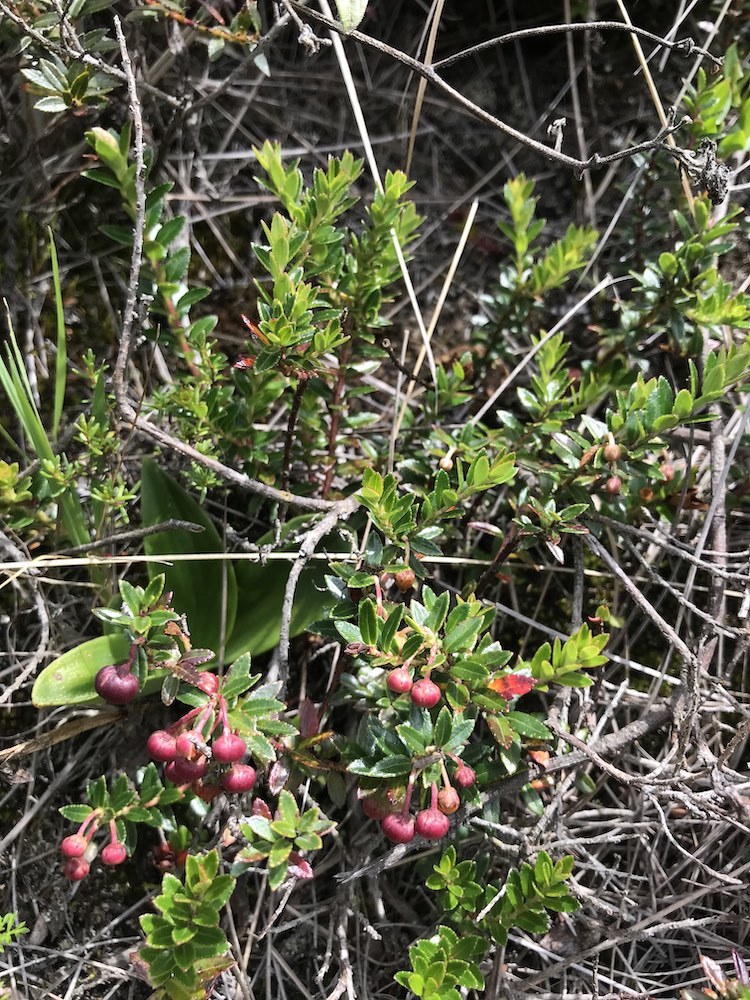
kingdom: Plantae
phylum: Tracheophyta
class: Magnoliopsida
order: Ericales
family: Ericaceae
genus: Gaultheria
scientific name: Gaultheria myrsinoides
